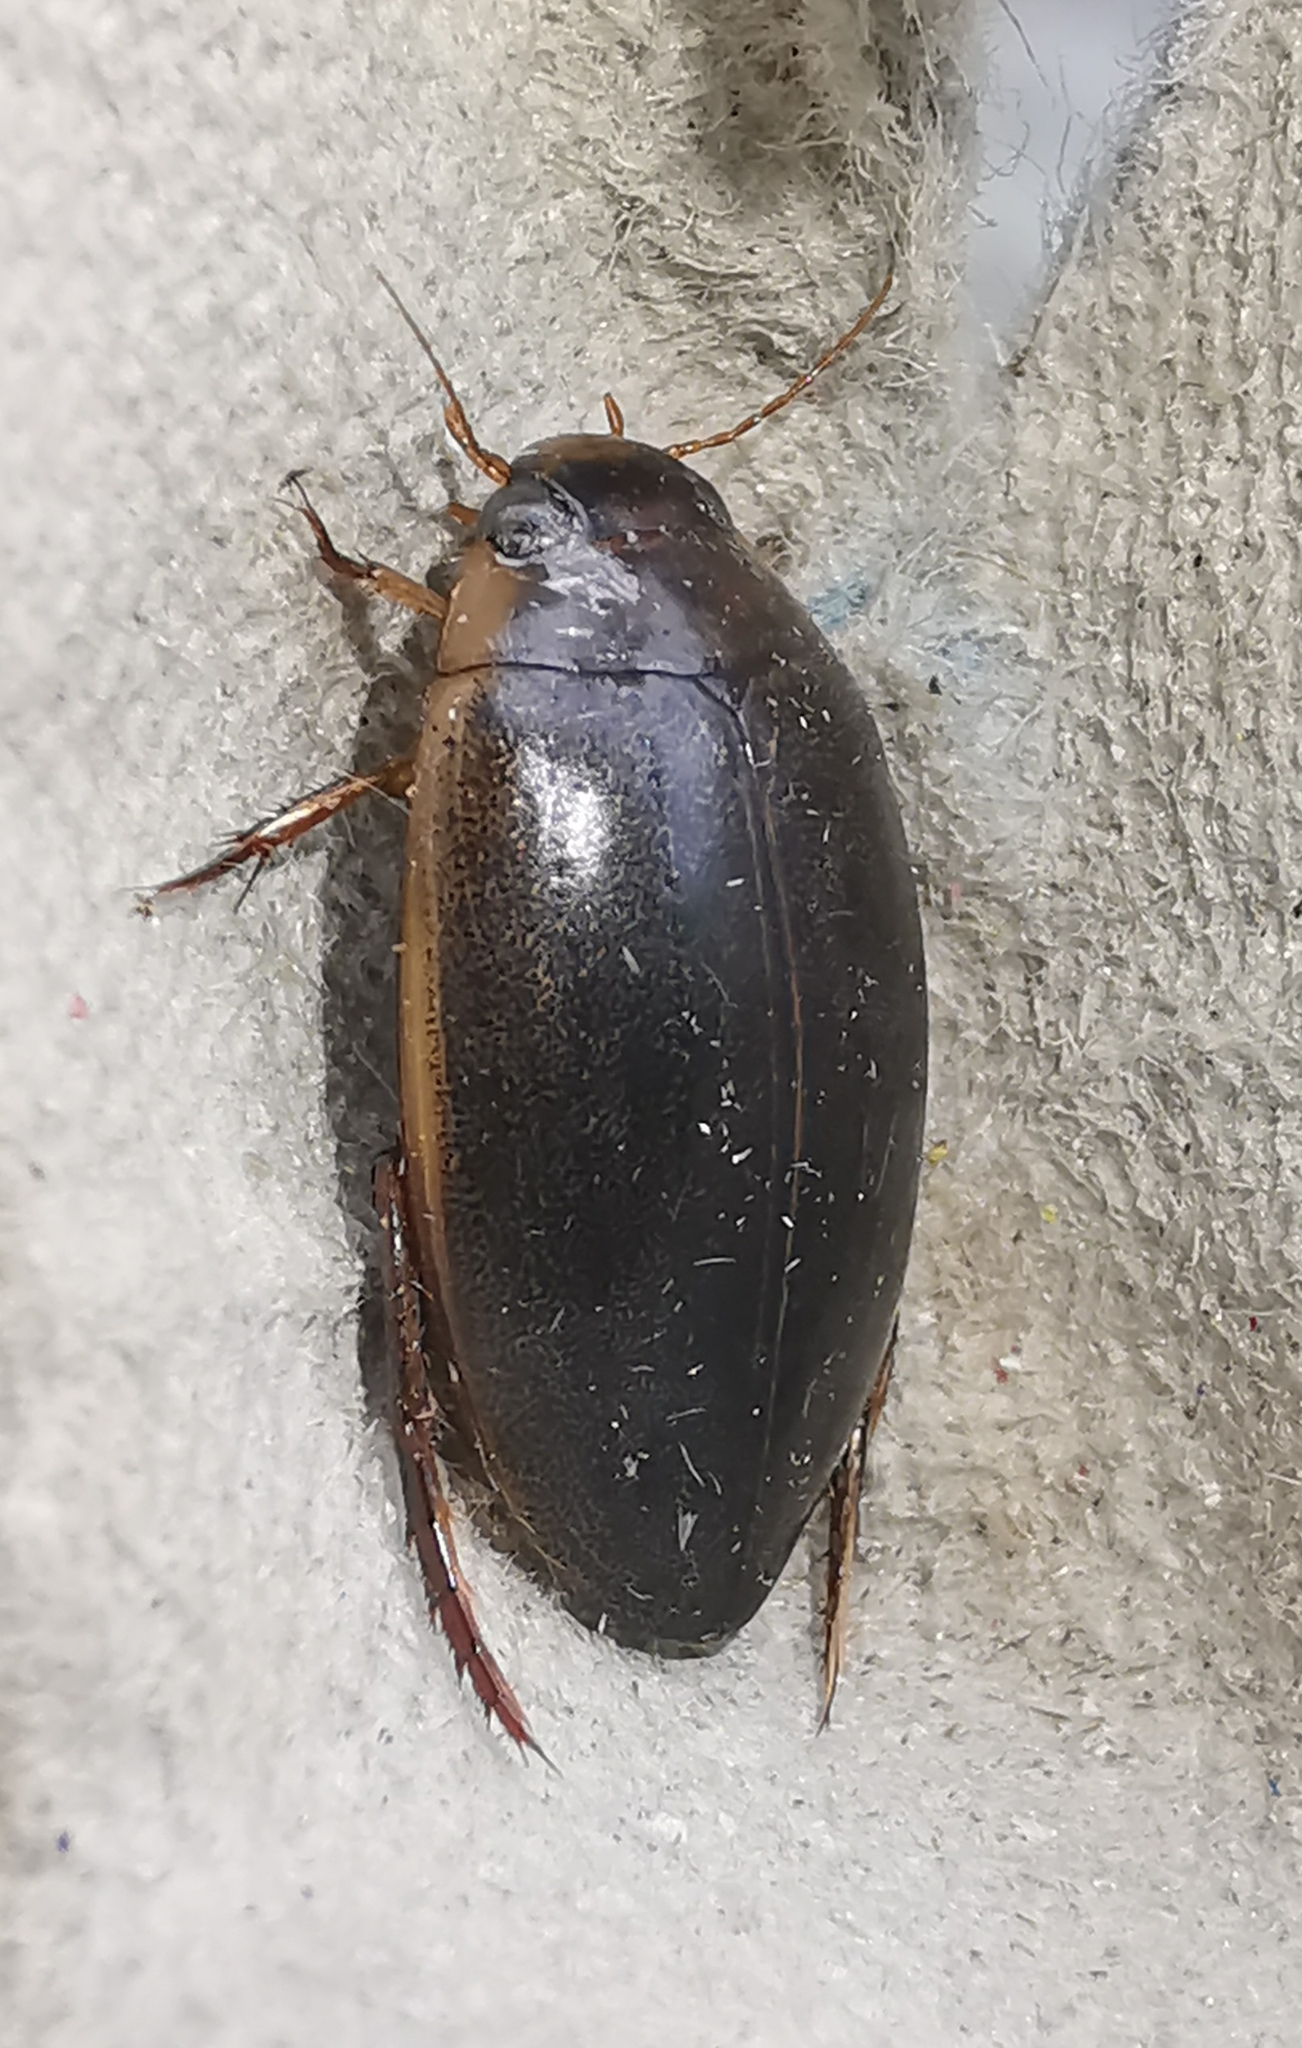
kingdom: Animalia
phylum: Arthropoda
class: Insecta
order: Coleoptera
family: Dytiscidae
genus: Rhantus
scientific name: Rhantus suturalis
